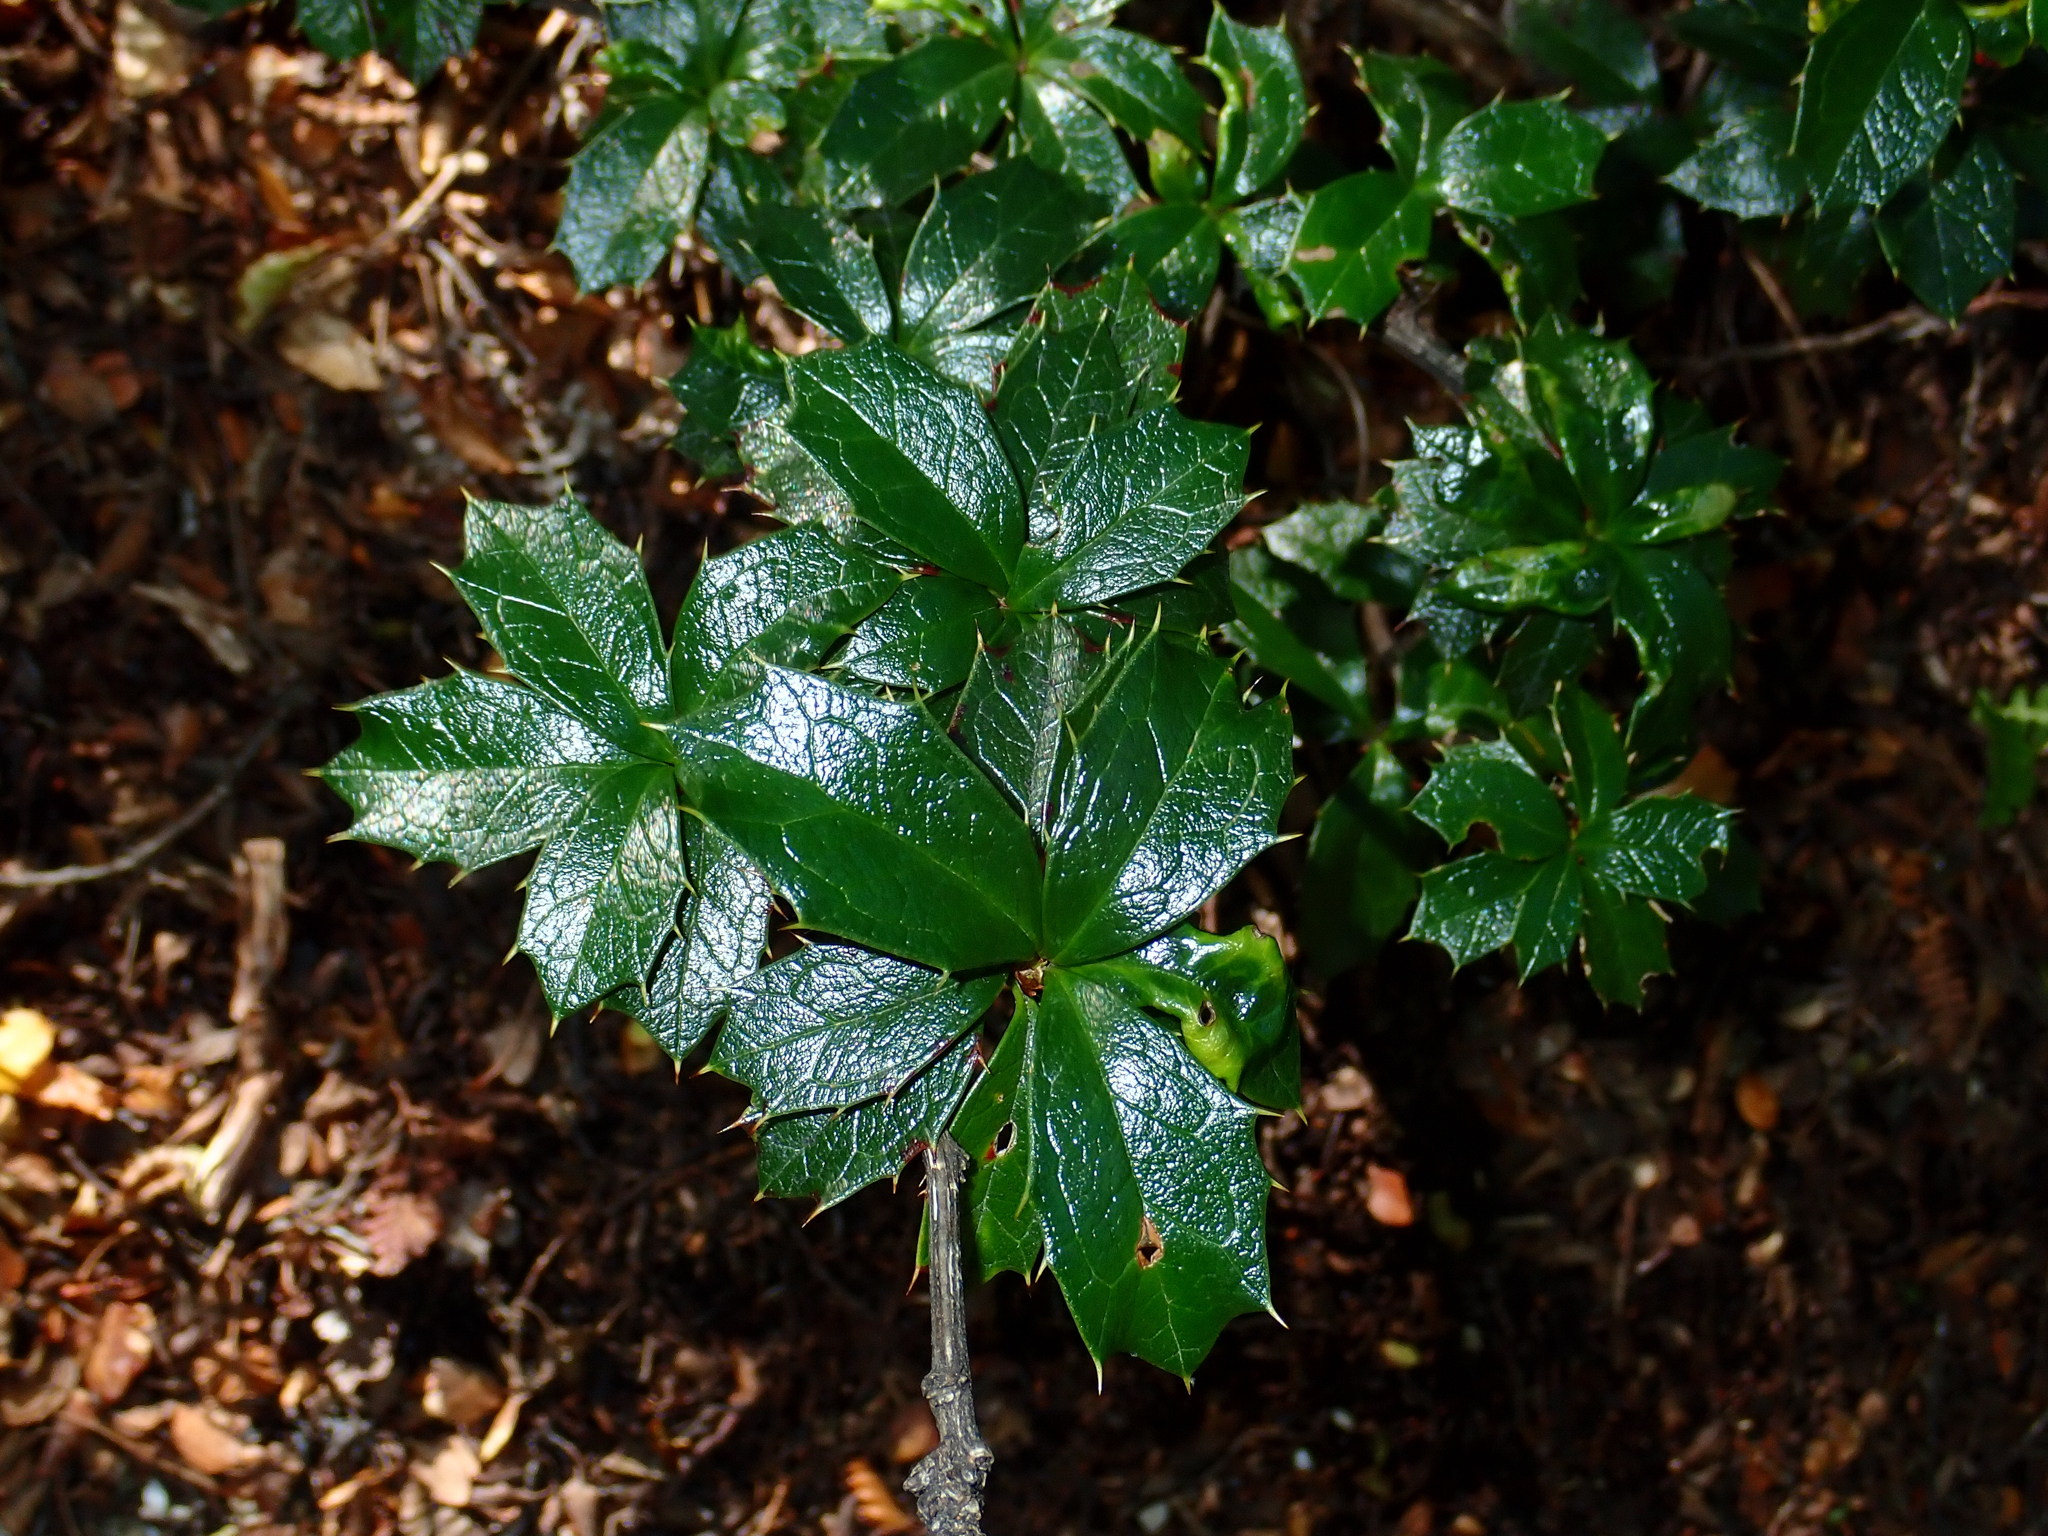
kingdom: Plantae
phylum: Tracheophyta
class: Magnoliopsida
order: Ranunculales
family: Berberidaceae
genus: Berberis
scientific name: Berberis ilicifolia
